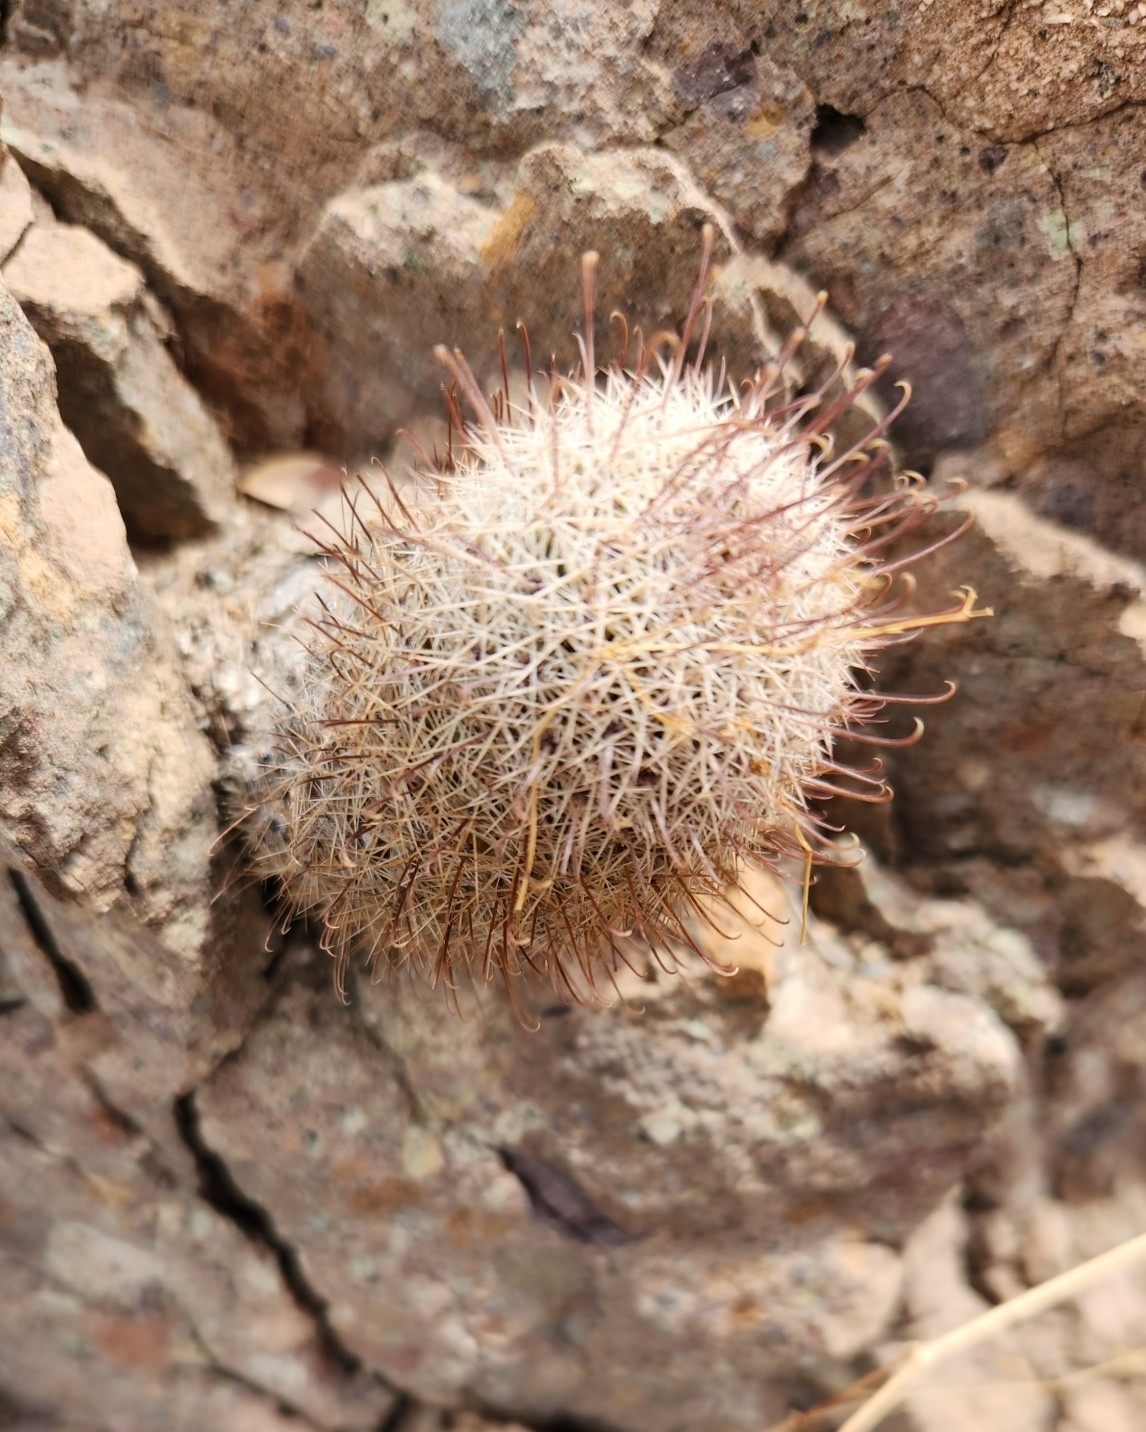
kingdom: Plantae
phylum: Tracheophyta
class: Magnoliopsida
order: Caryophyllales
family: Cactaceae
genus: Cochemiea
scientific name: Cochemiea albicans
